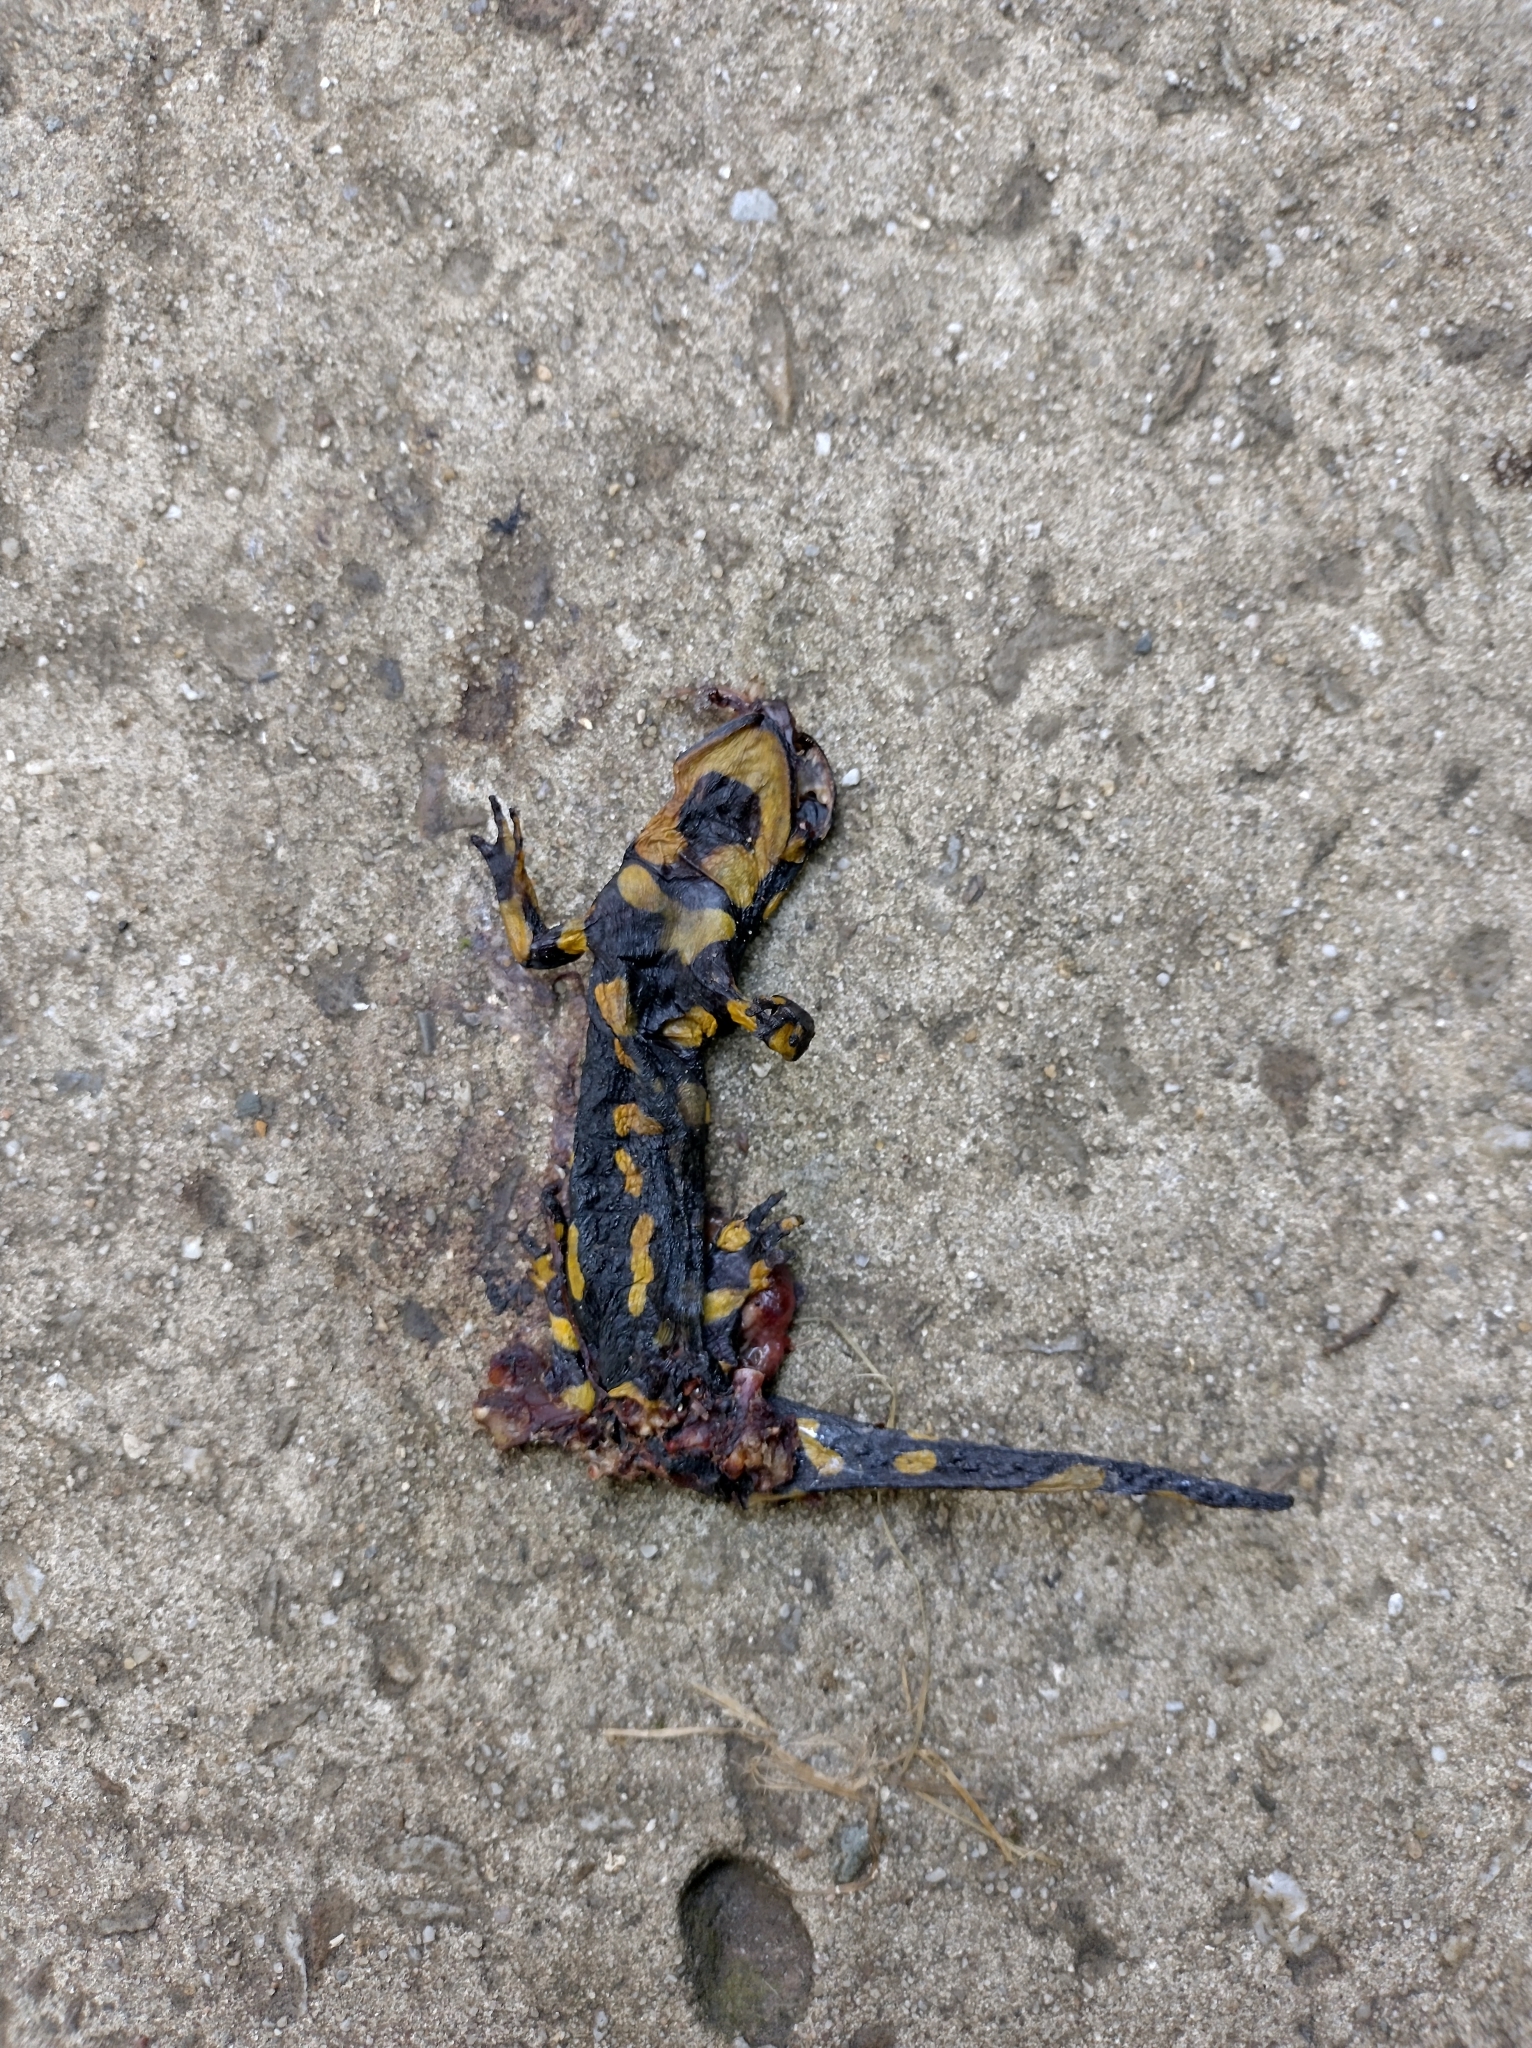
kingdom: Animalia
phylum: Chordata
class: Amphibia
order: Caudata
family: Salamandridae
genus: Salamandra
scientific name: Salamandra salamandra
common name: Fire salamander
